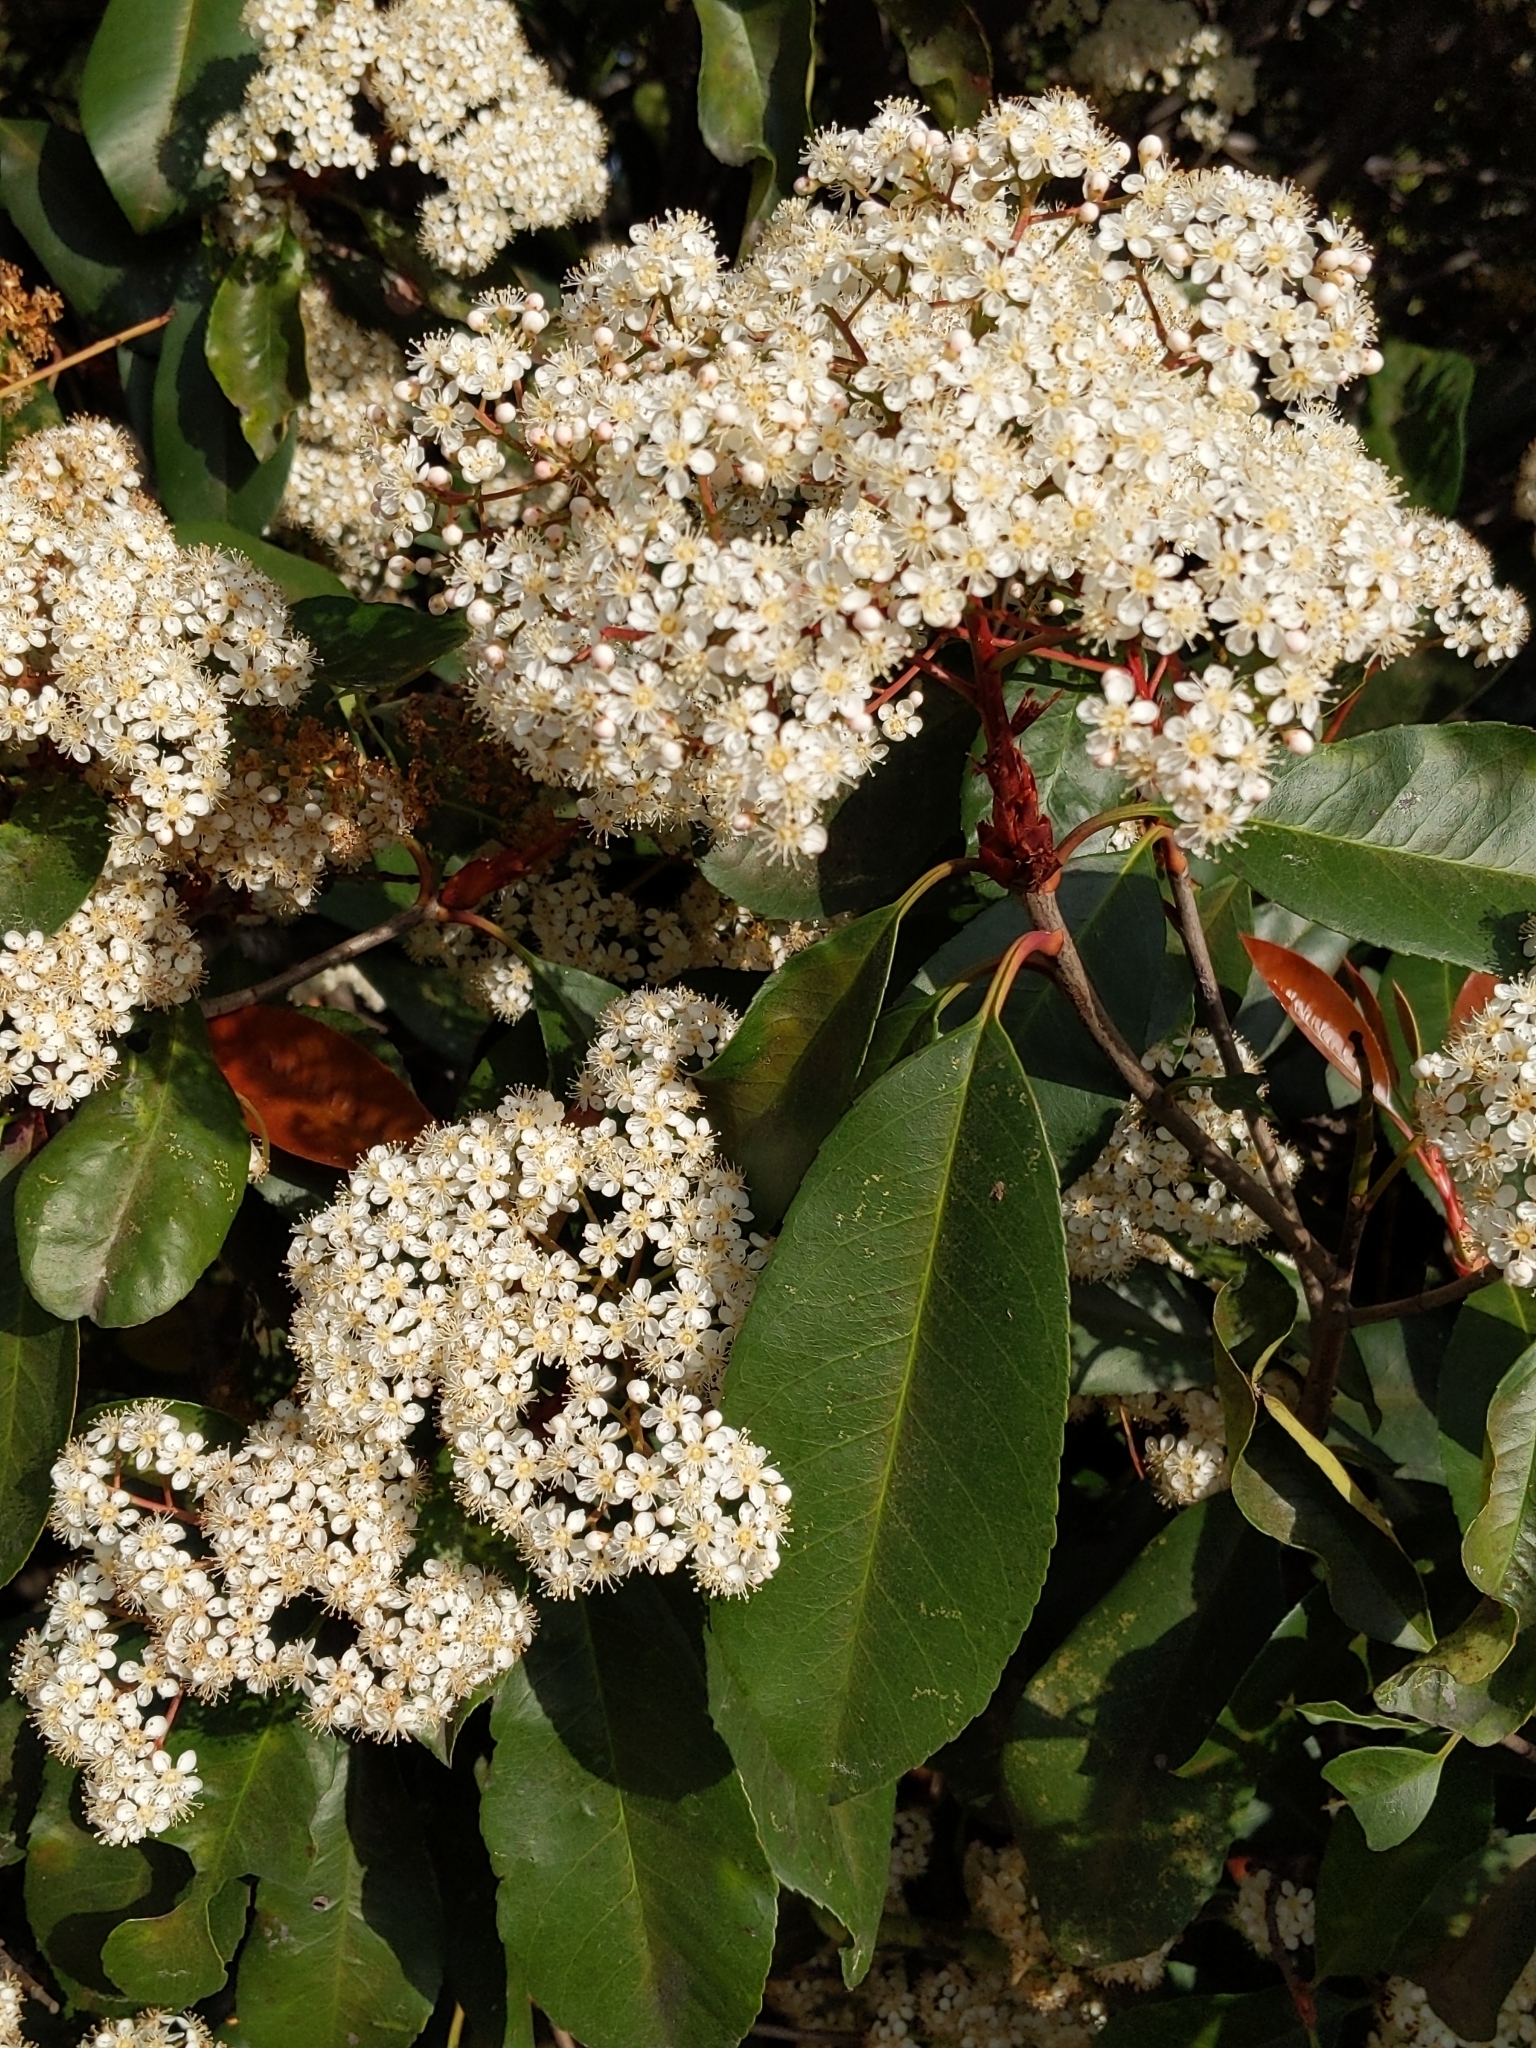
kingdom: Plantae
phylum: Tracheophyta
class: Magnoliopsida
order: Rosales
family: Rosaceae
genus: Photinia
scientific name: Photinia fraseri
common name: Fraser's photinia
